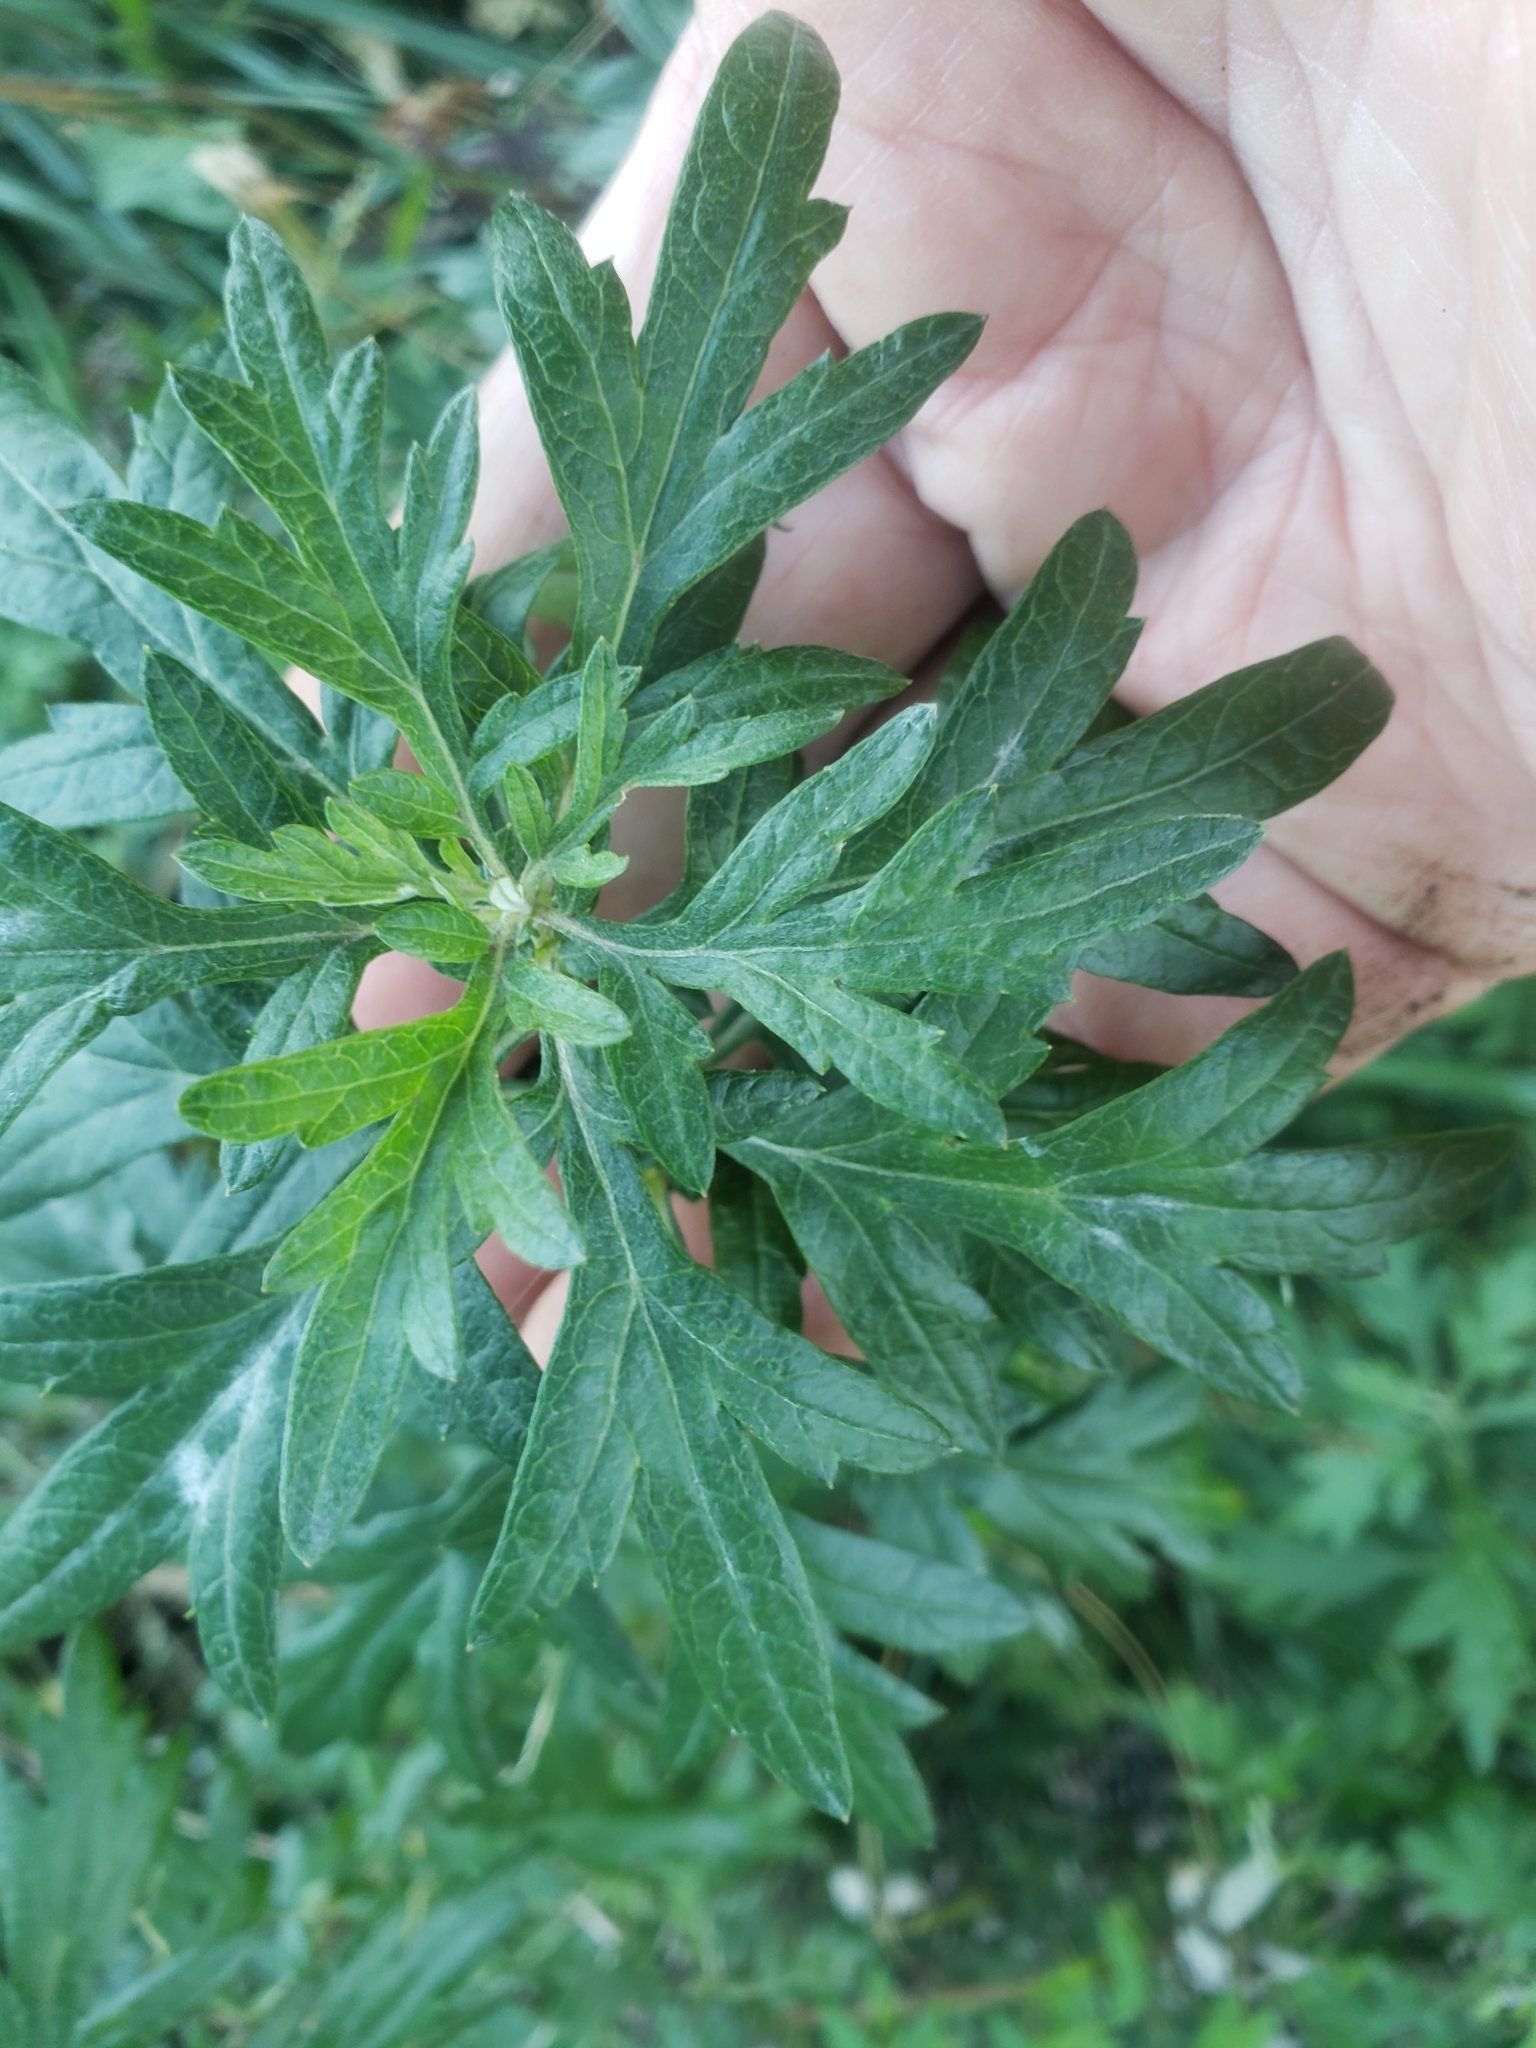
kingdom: Fungi
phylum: Ascomycota
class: Leotiomycetes
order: Helotiales
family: Erysiphaceae
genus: Golovinomyces
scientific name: Golovinomyces artemisiae
